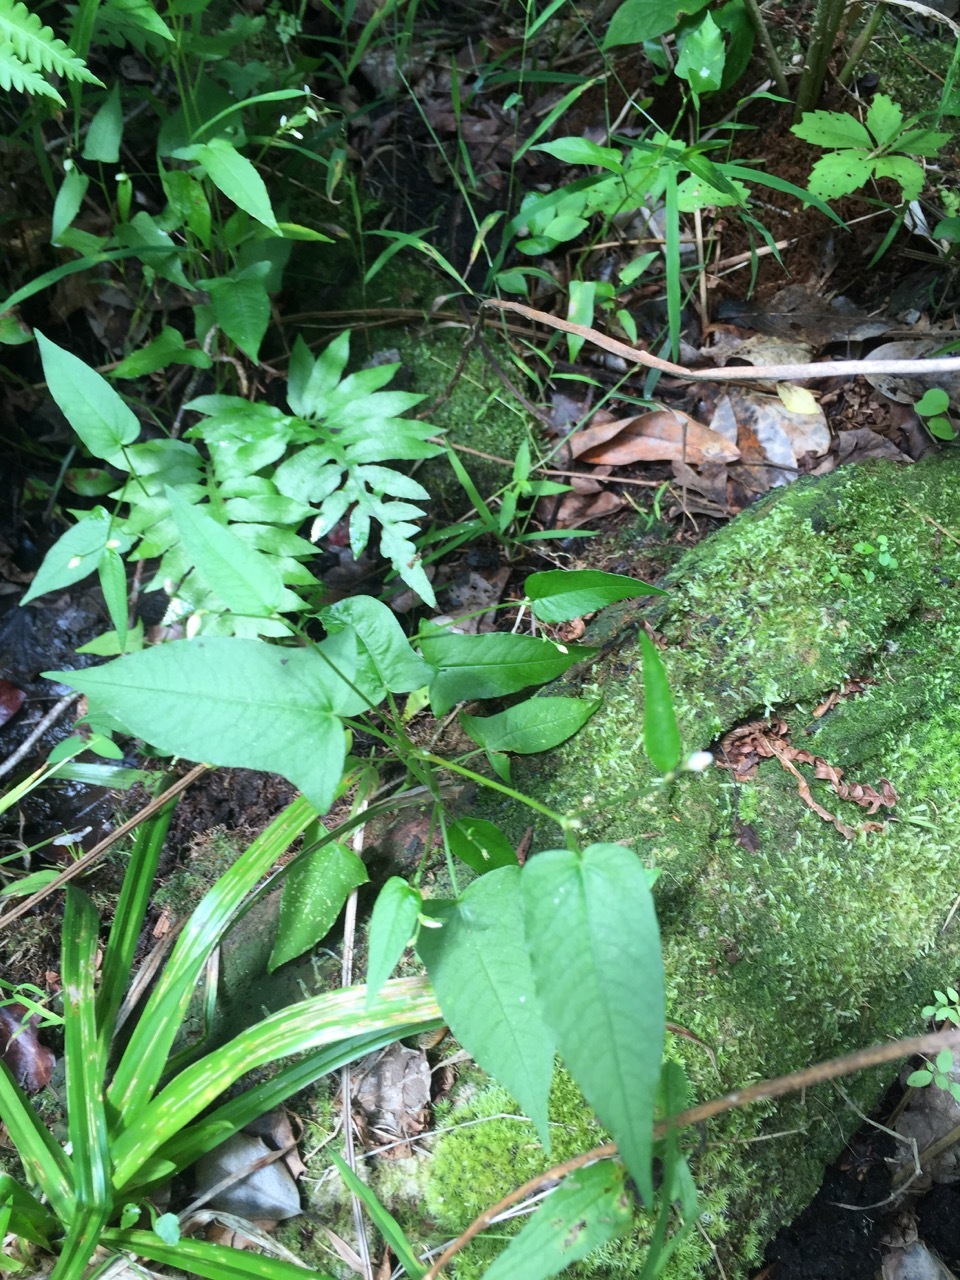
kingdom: Plantae
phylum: Tracheophyta
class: Magnoliopsida
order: Caryophyllales
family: Polygonaceae
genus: Persicaria
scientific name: Persicaria arifolia
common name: Halberd-leaved tear-thumb
